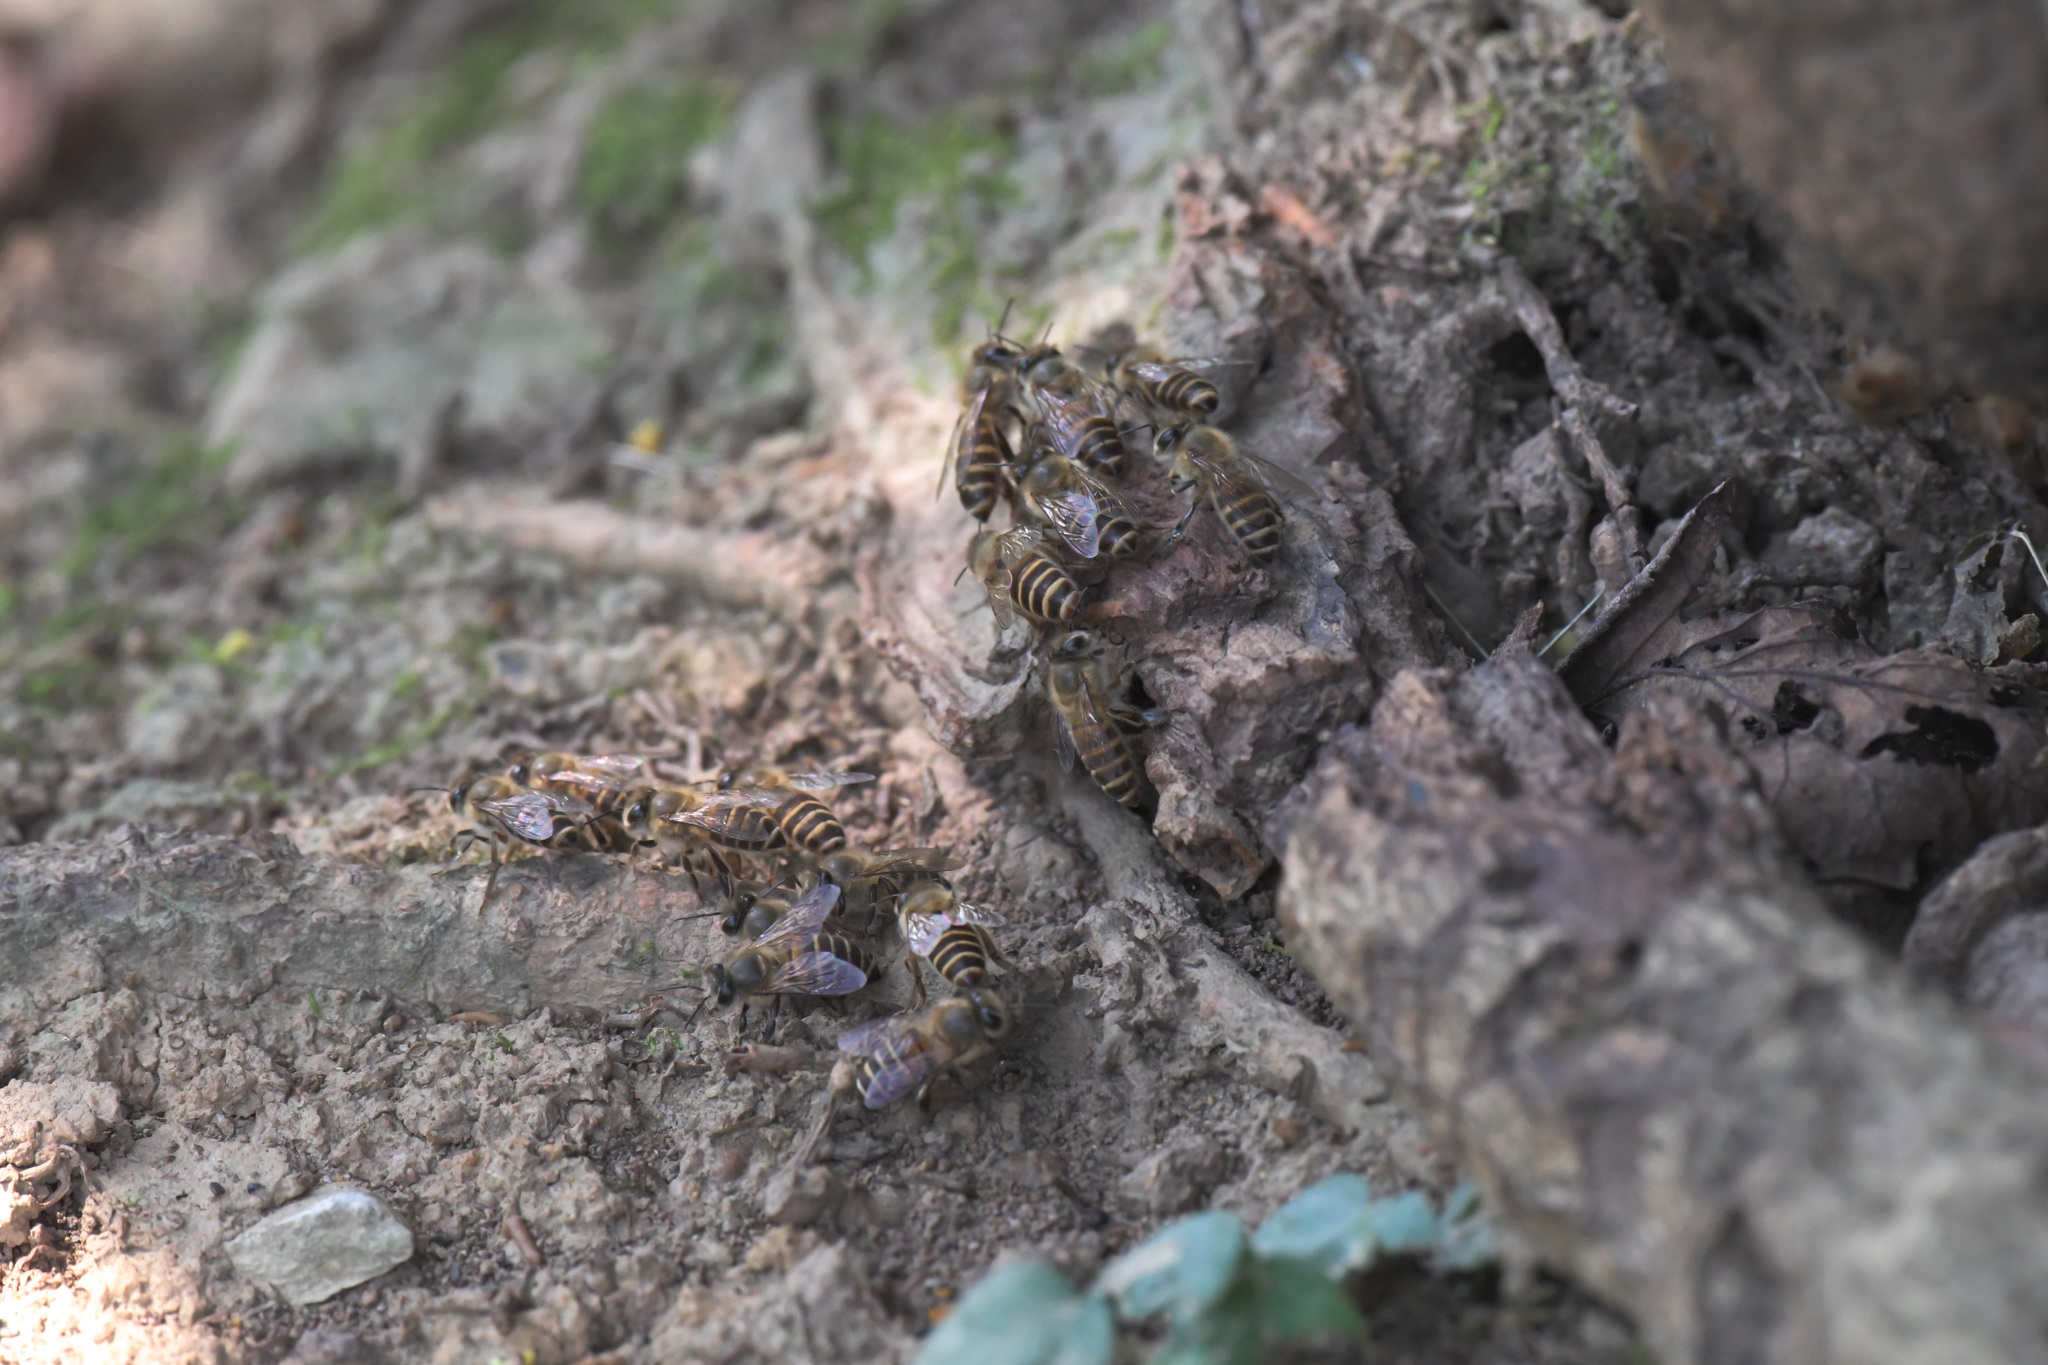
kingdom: Animalia
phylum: Arthropoda
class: Insecta
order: Hymenoptera
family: Apidae
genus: Apis
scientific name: Apis cerana
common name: Honey bee
